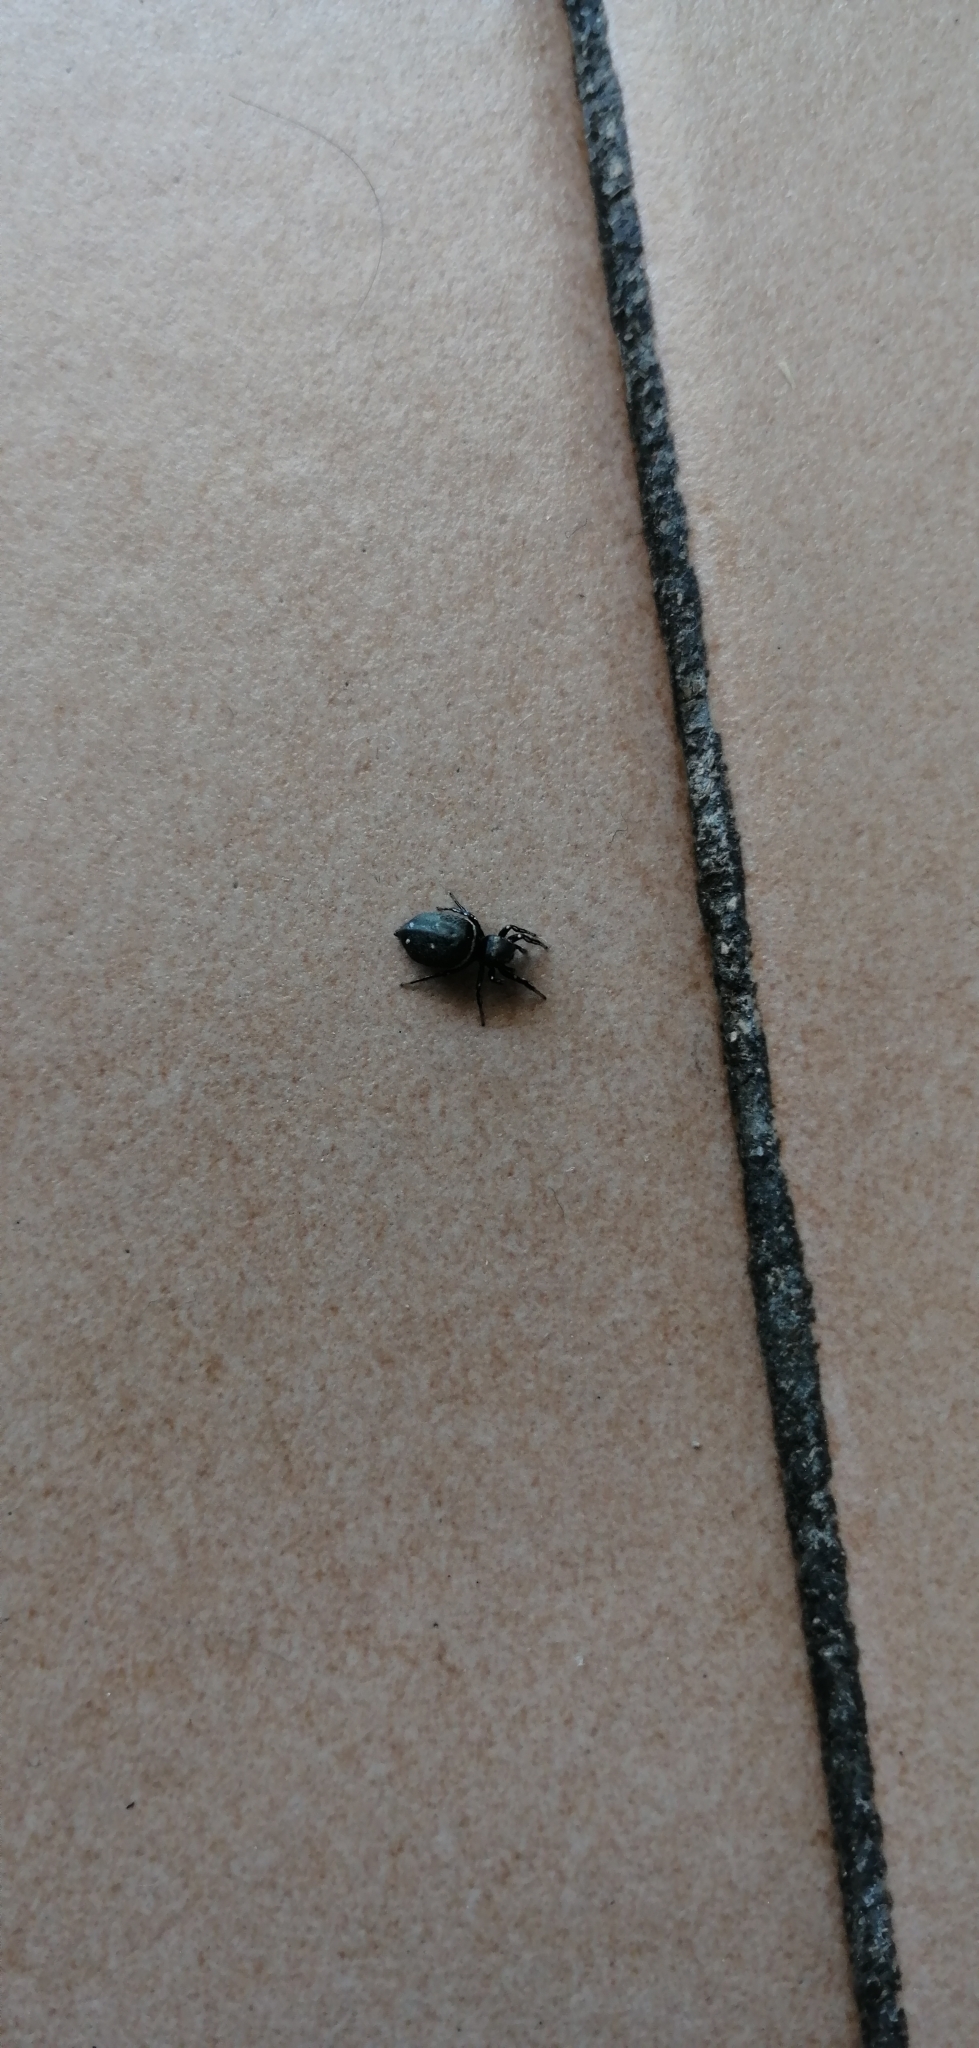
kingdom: Animalia
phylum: Arthropoda
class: Arachnida
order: Araneae
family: Salticidae
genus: Heliophanus
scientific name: Heliophanus kochii
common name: Sun jumping spider
